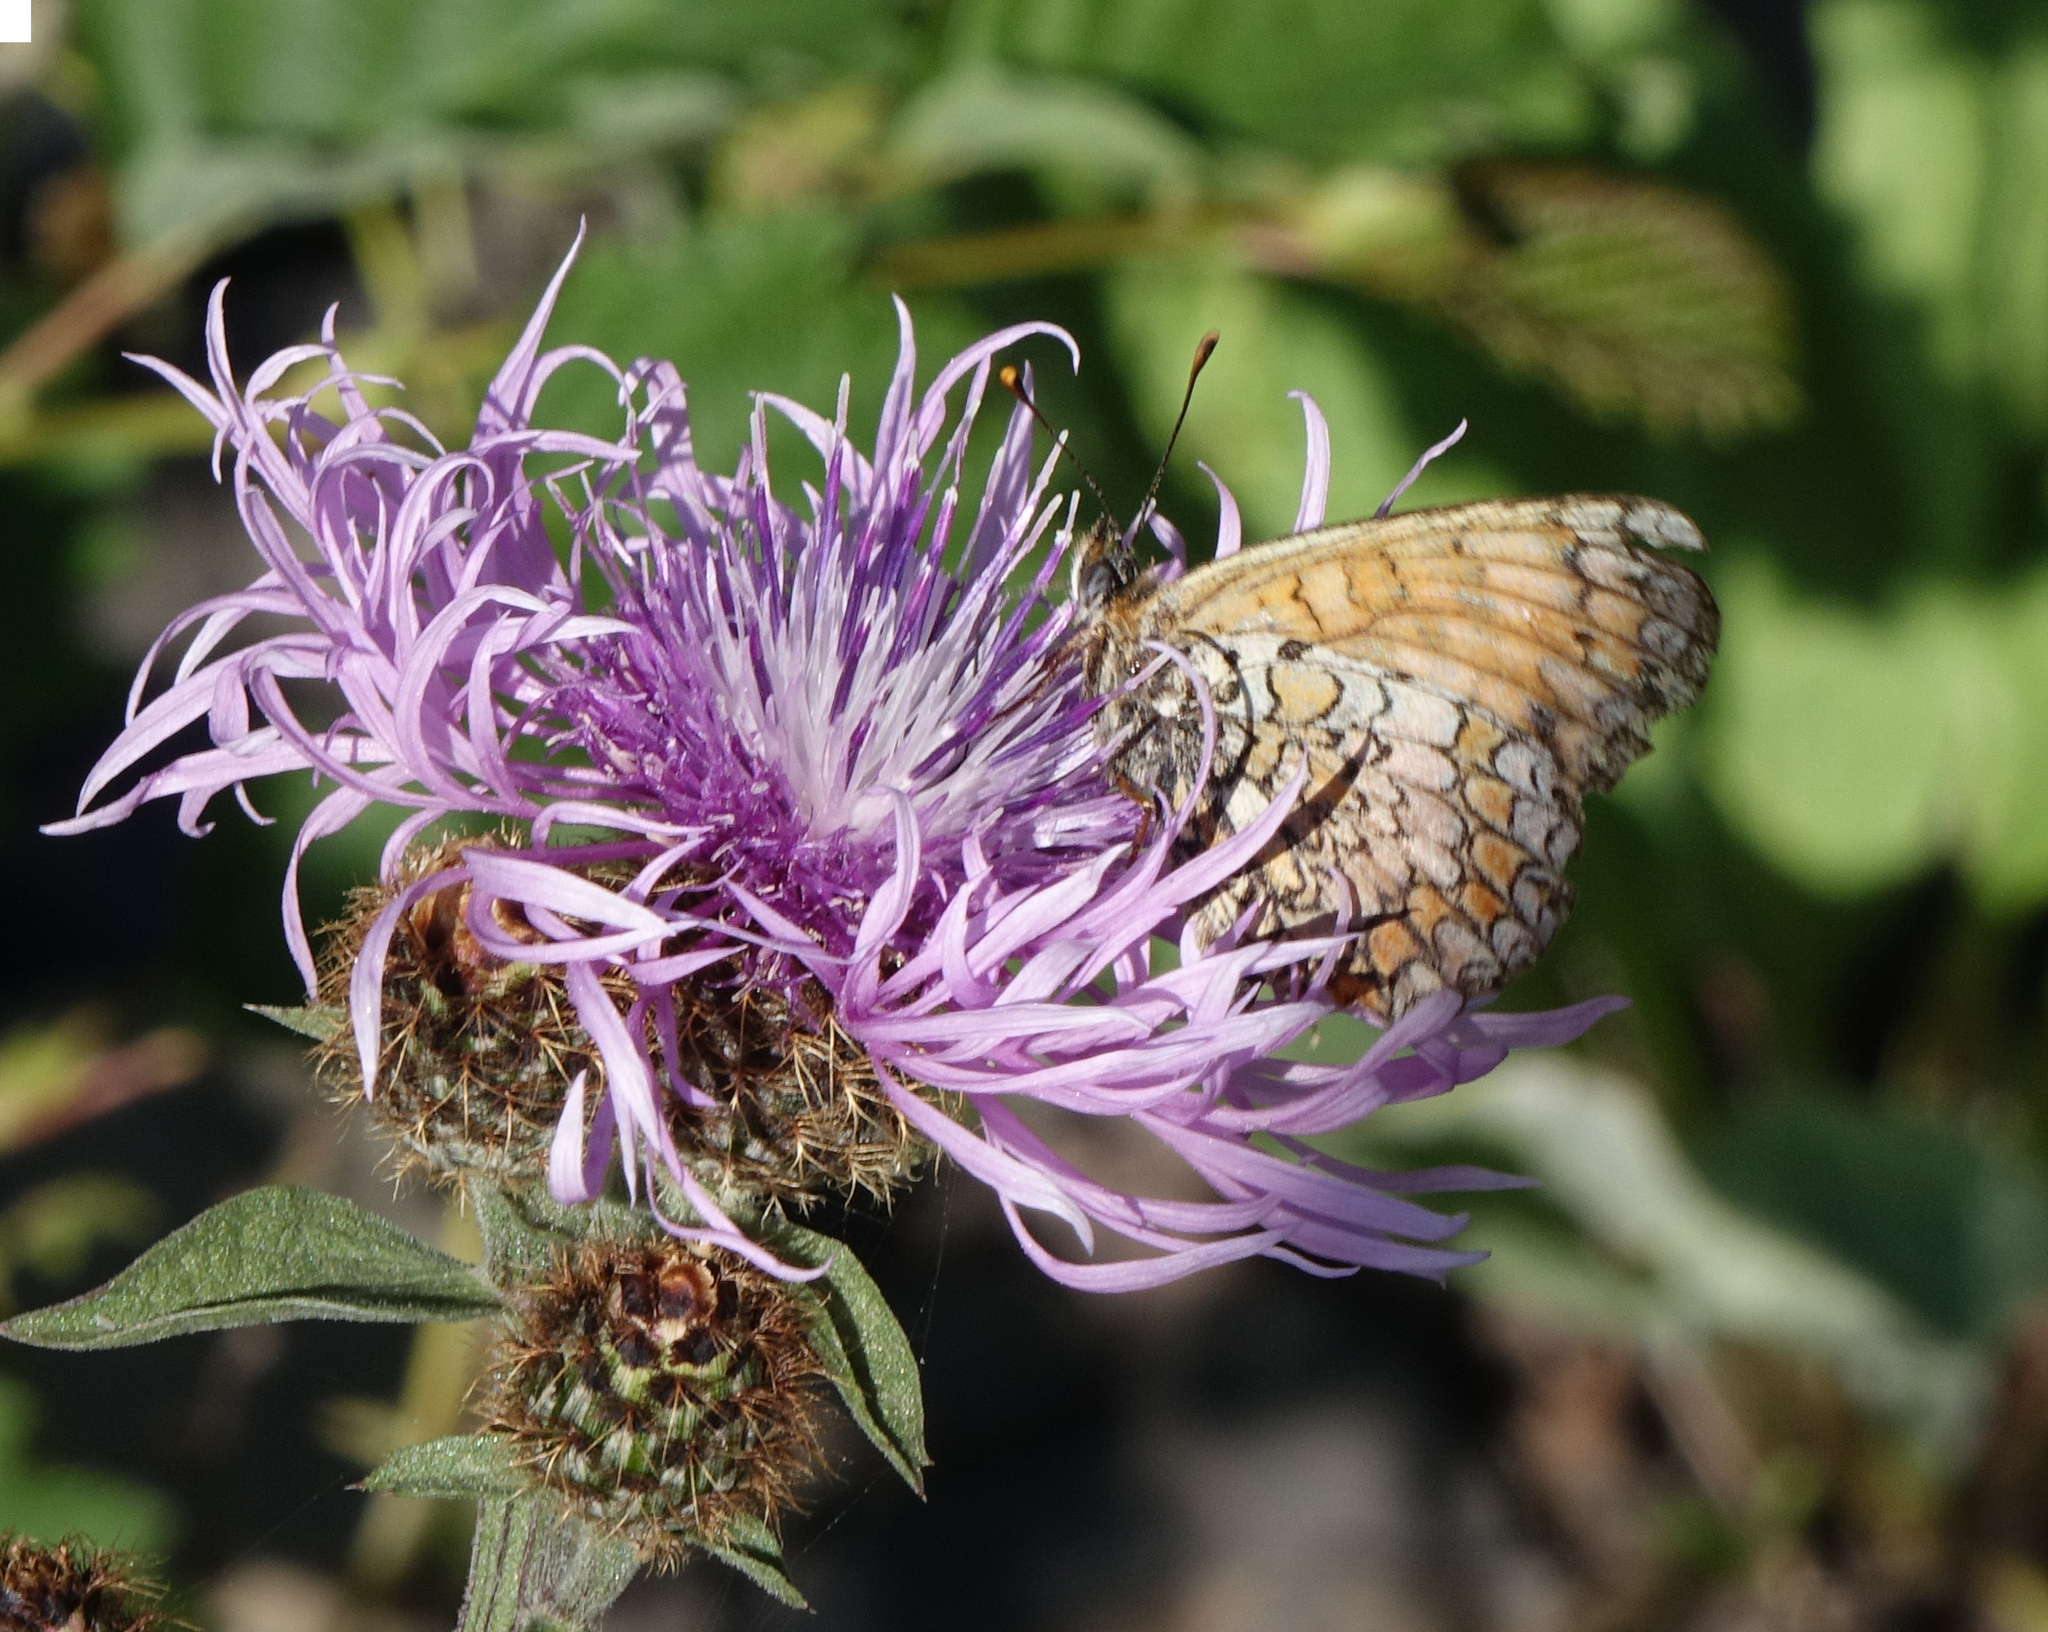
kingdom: Animalia
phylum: Arthropoda
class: Insecta
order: Lepidoptera
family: Nymphalidae
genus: Melitaea
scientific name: Melitaea phoebe
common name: Knapweed fritillary
